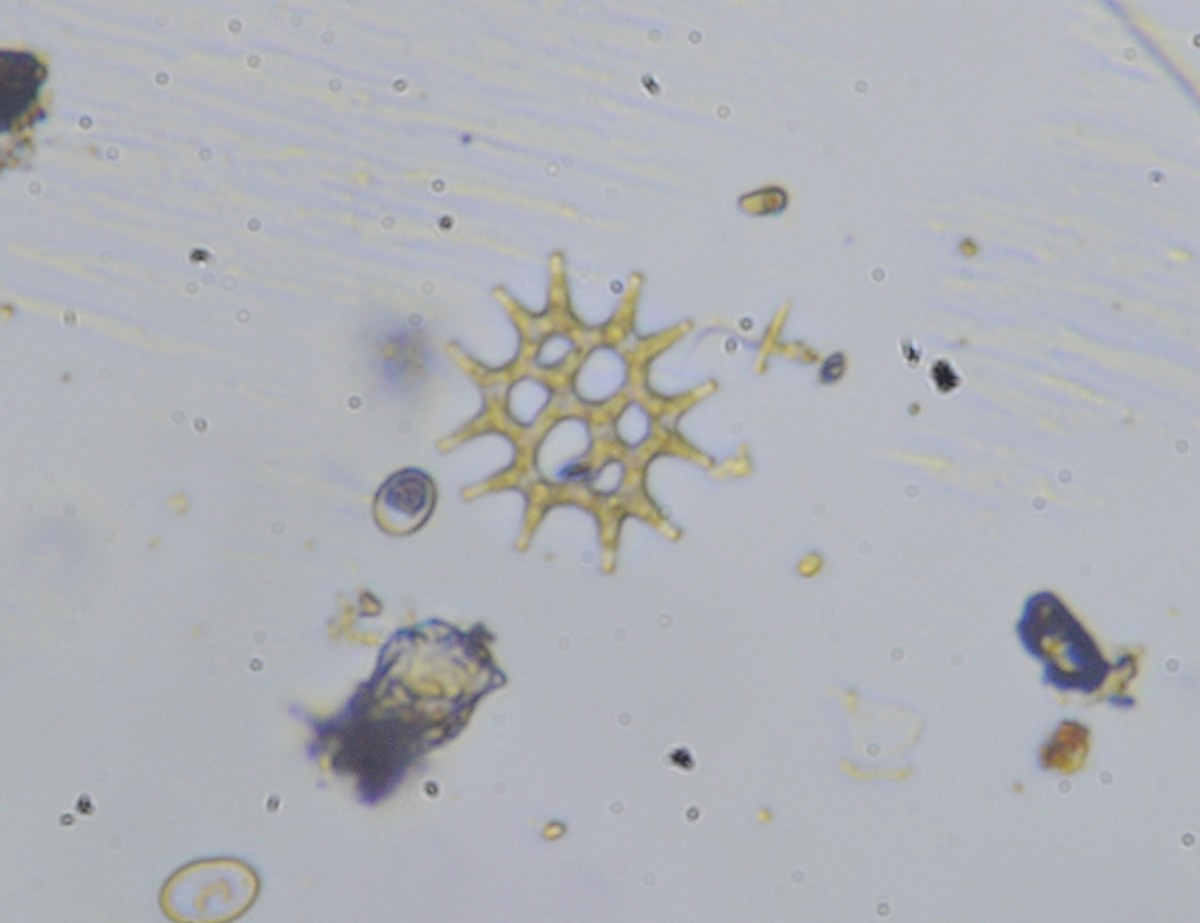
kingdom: Plantae
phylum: Chlorophyta
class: Chlorophyceae
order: Sphaeropleales
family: Hydrodictyaceae
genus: Pediastrum
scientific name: Pediastrum duplex
